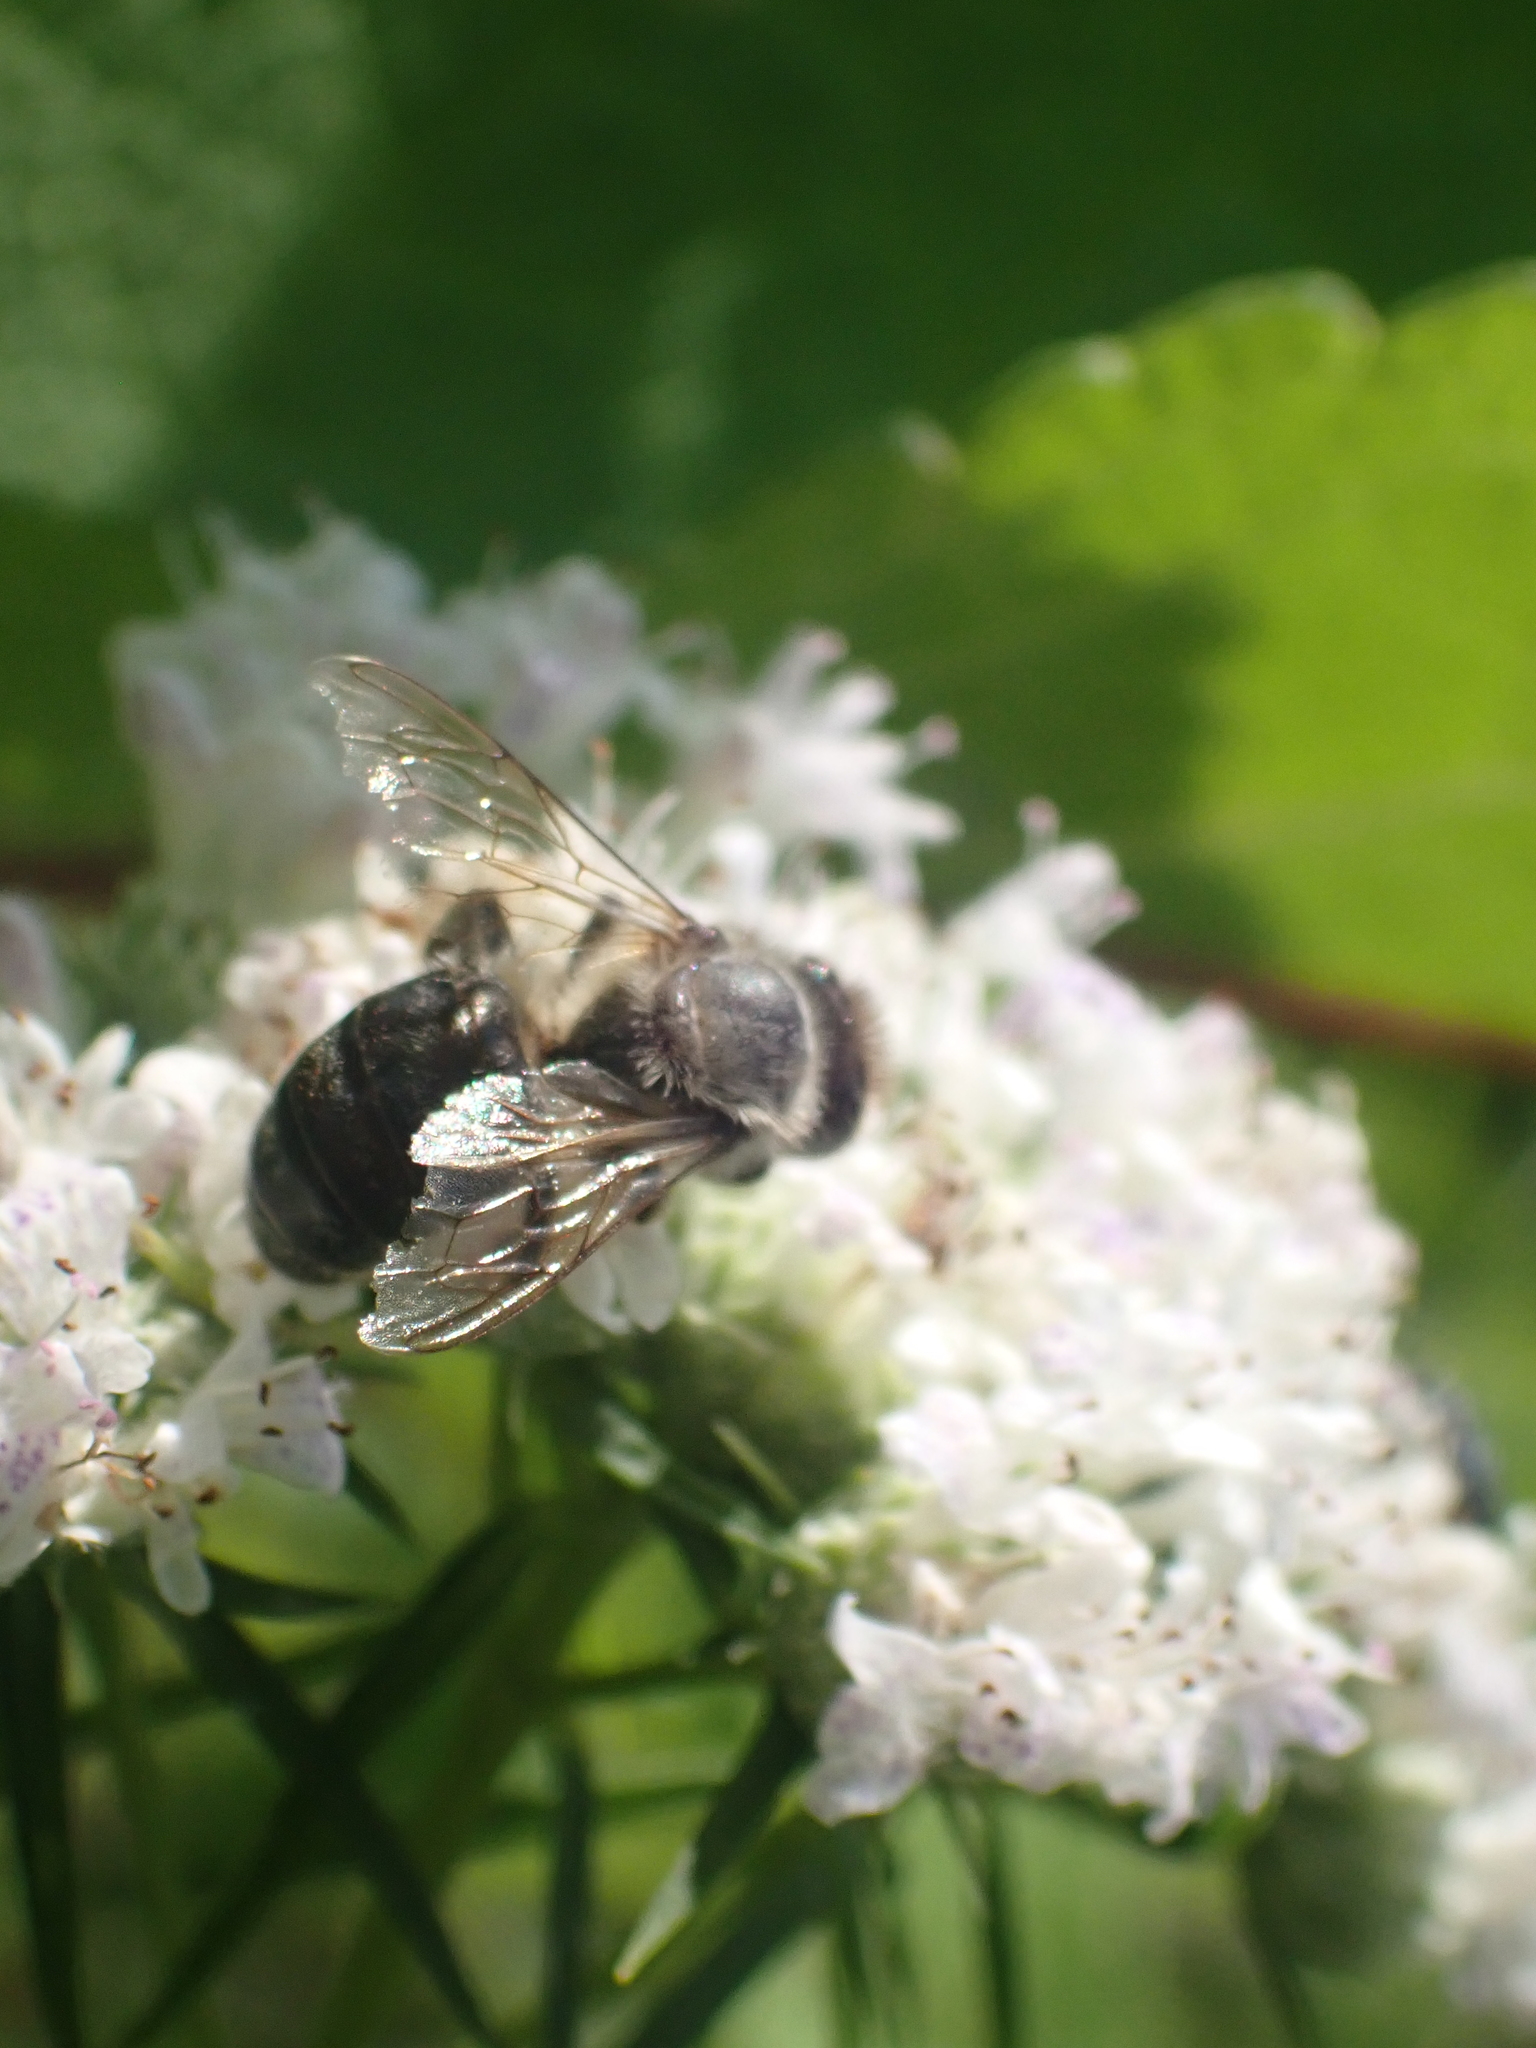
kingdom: Animalia
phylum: Arthropoda
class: Insecta
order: Hymenoptera
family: Apidae
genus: Apis
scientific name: Apis mellifera
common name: Honey bee
